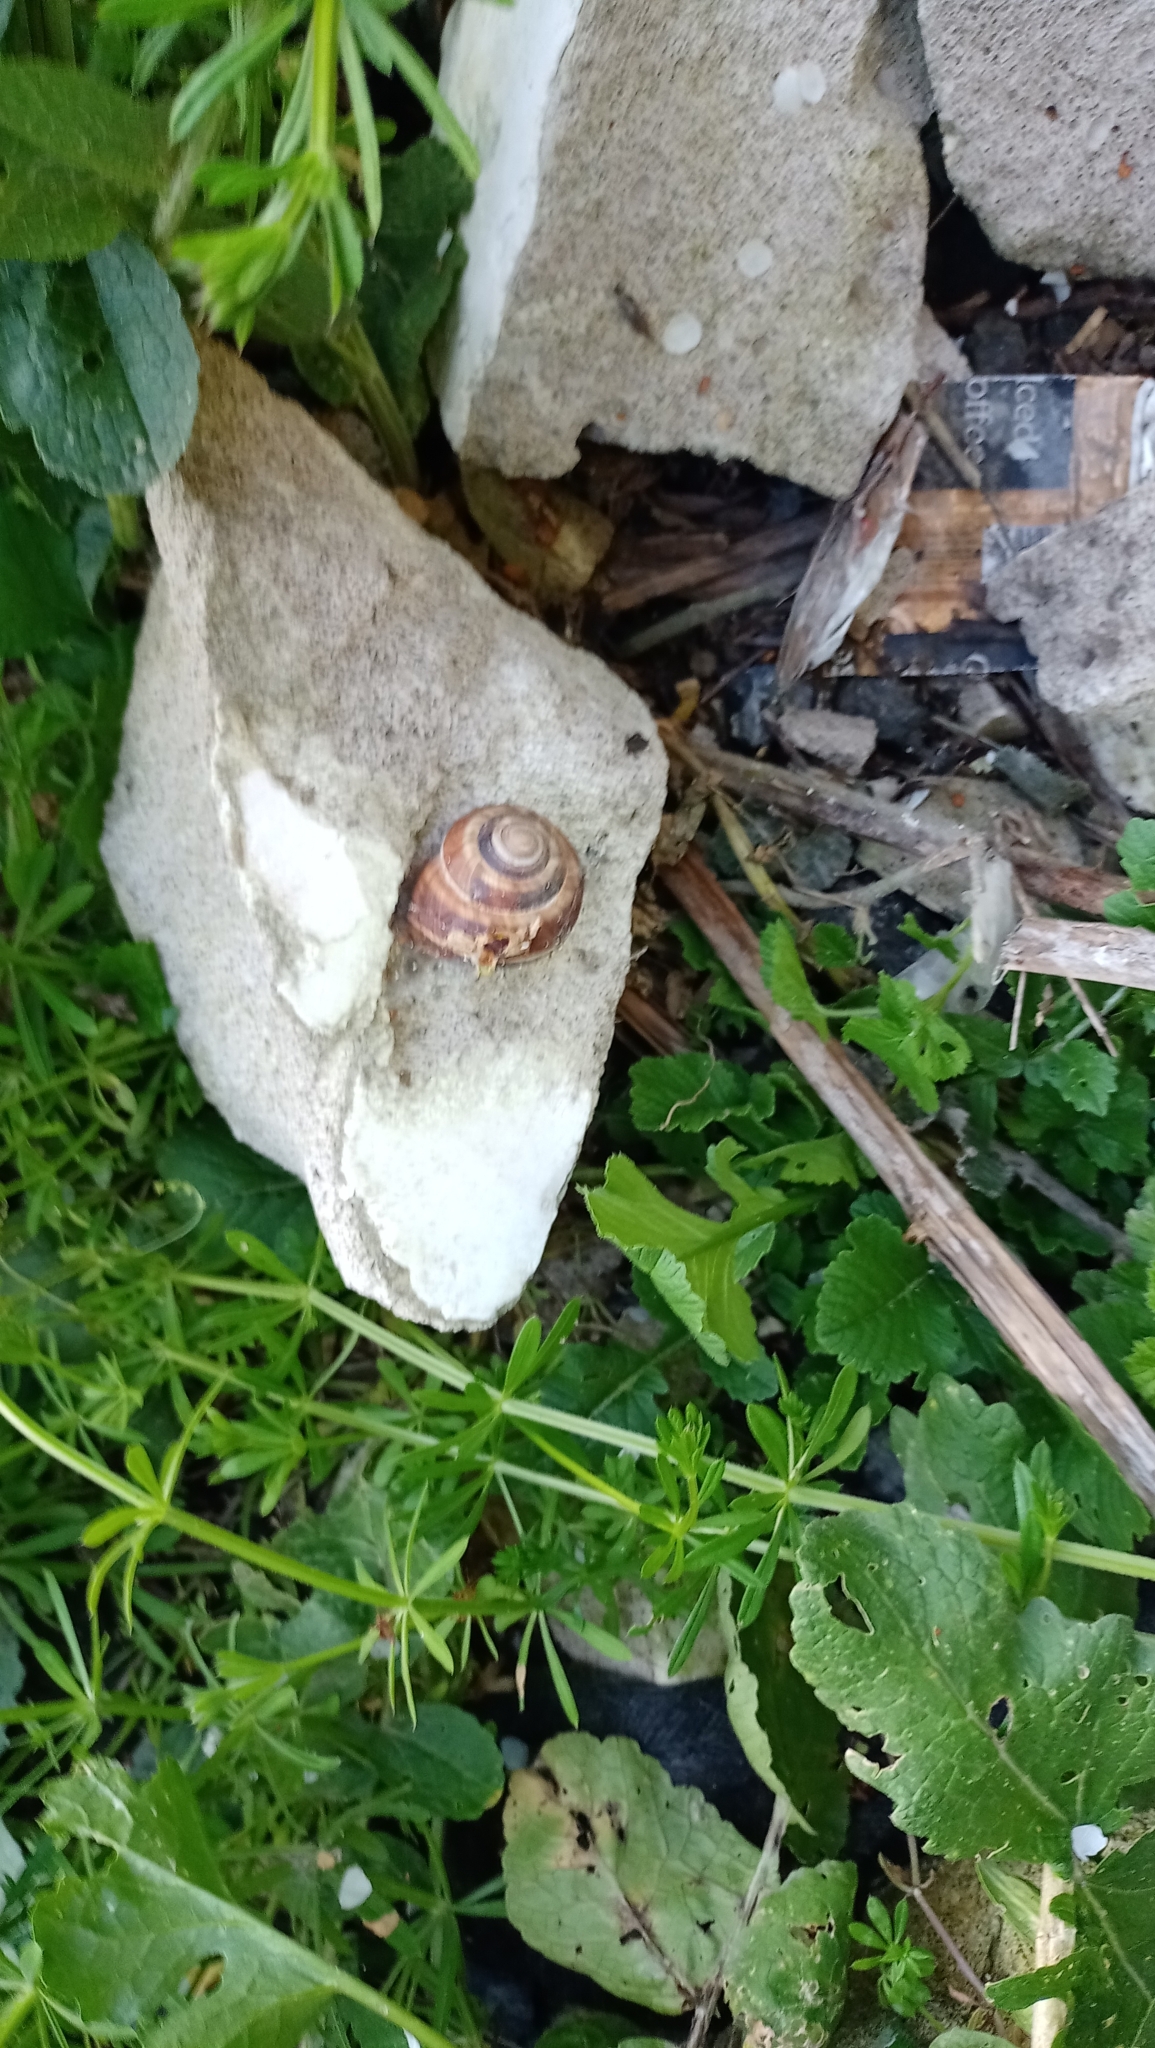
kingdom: Animalia
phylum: Mollusca
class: Gastropoda
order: Stylommatophora
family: Helicidae
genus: Helix
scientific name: Helix lucorum
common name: Turkish snail
